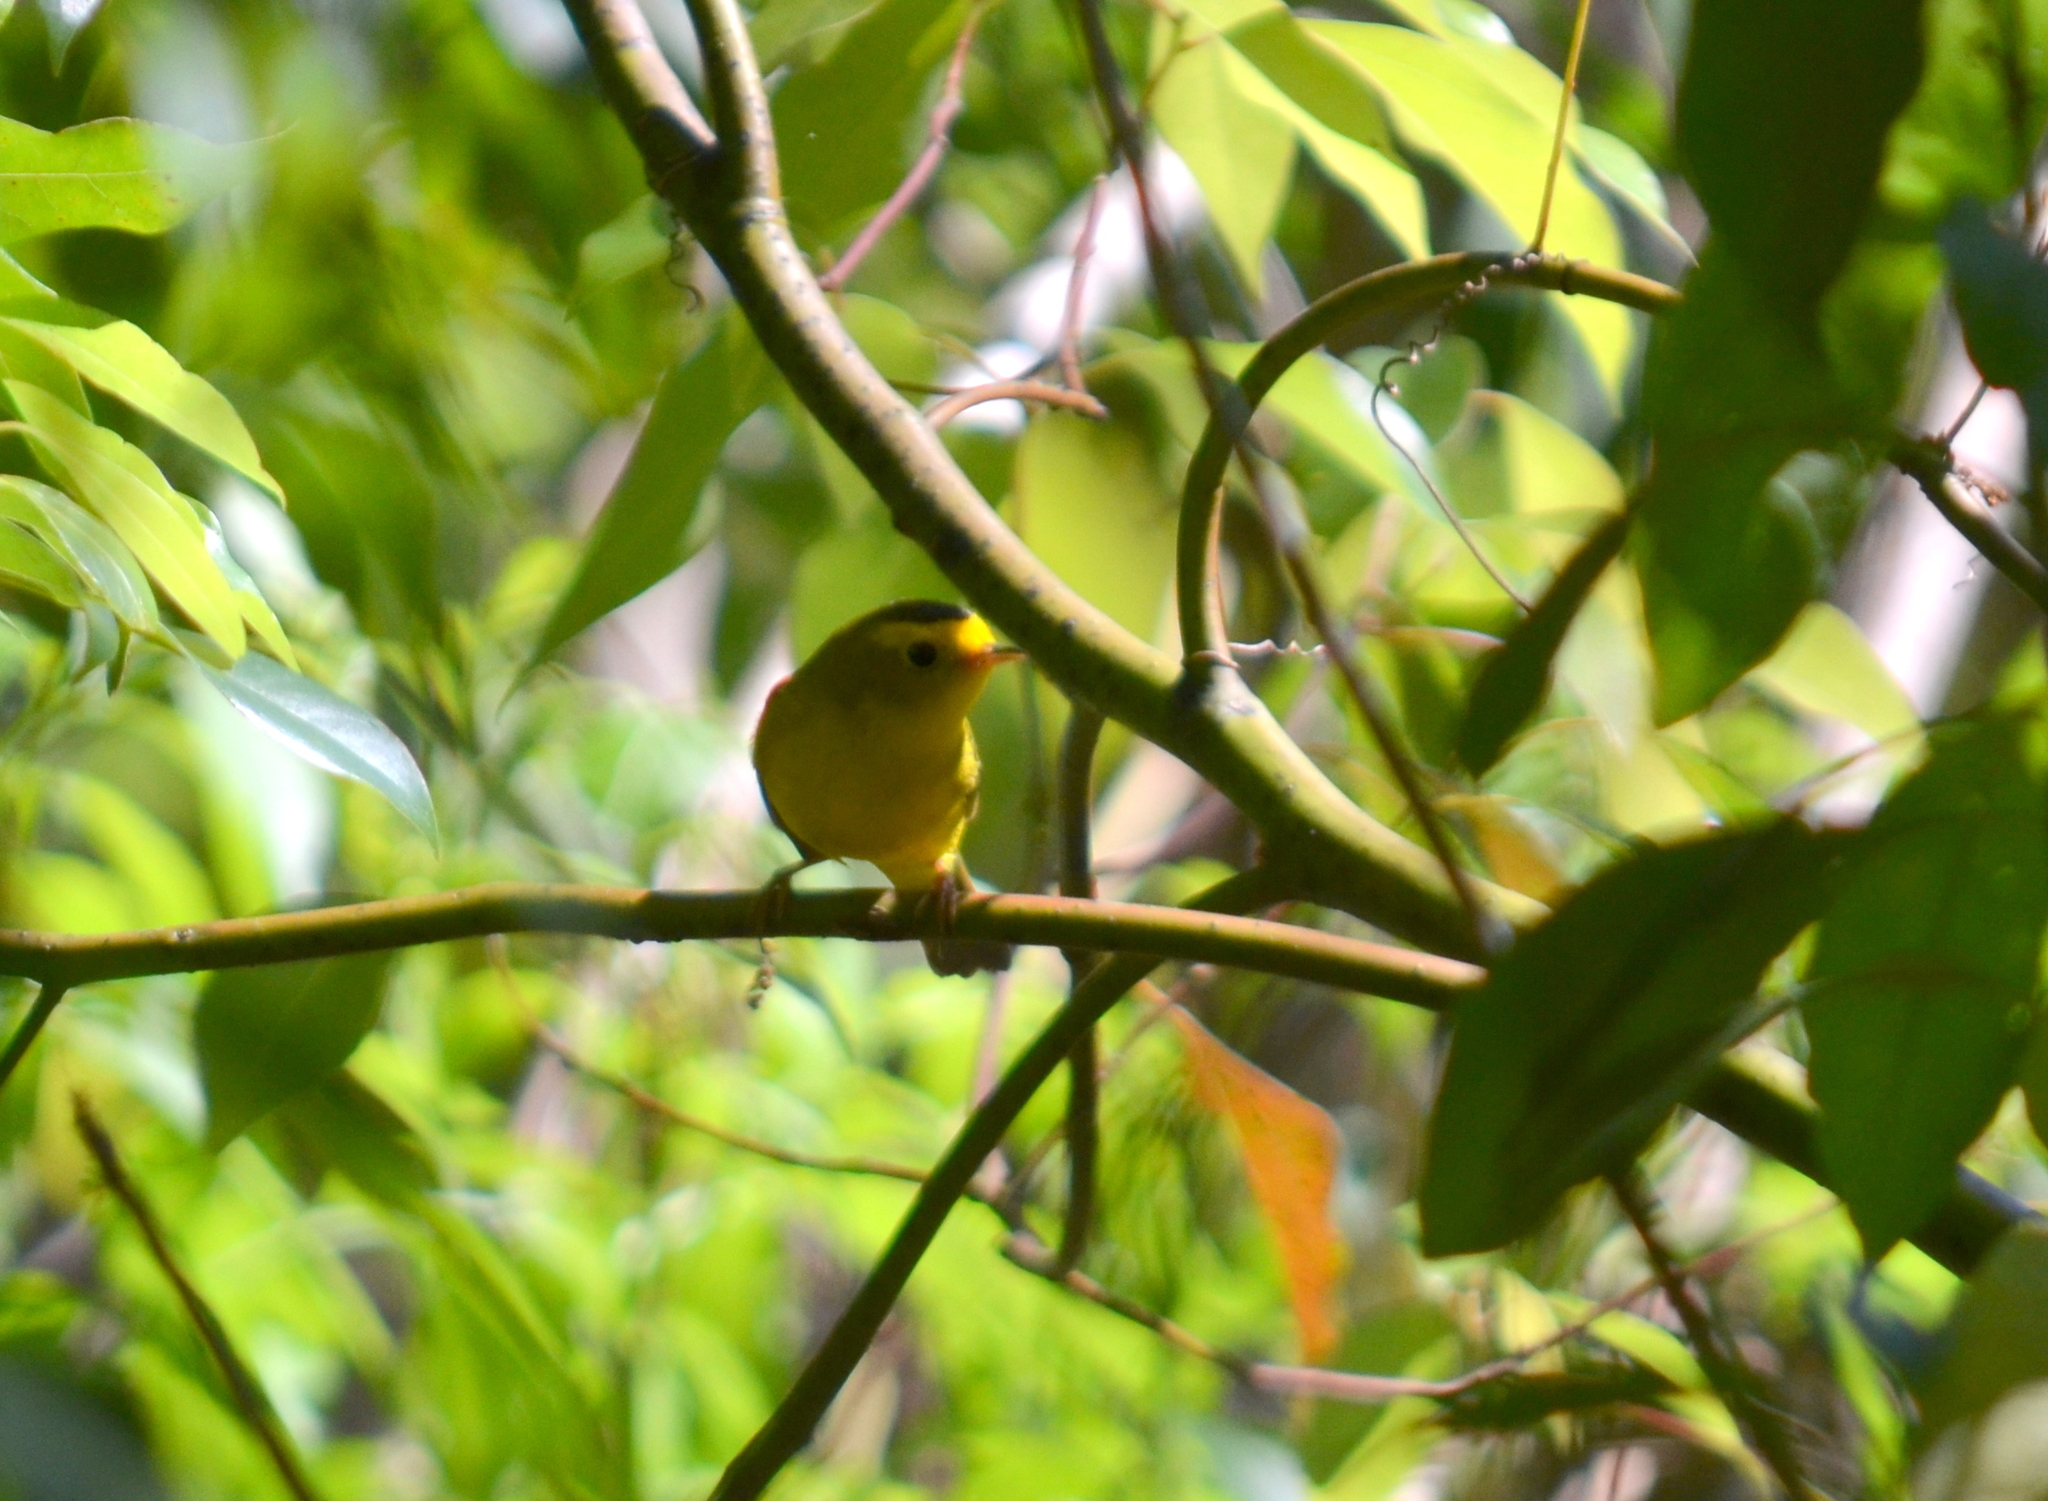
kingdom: Animalia
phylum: Chordata
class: Aves
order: Passeriformes
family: Parulidae
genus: Cardellina
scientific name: Cardellina pusilla
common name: Wilson's warbler
